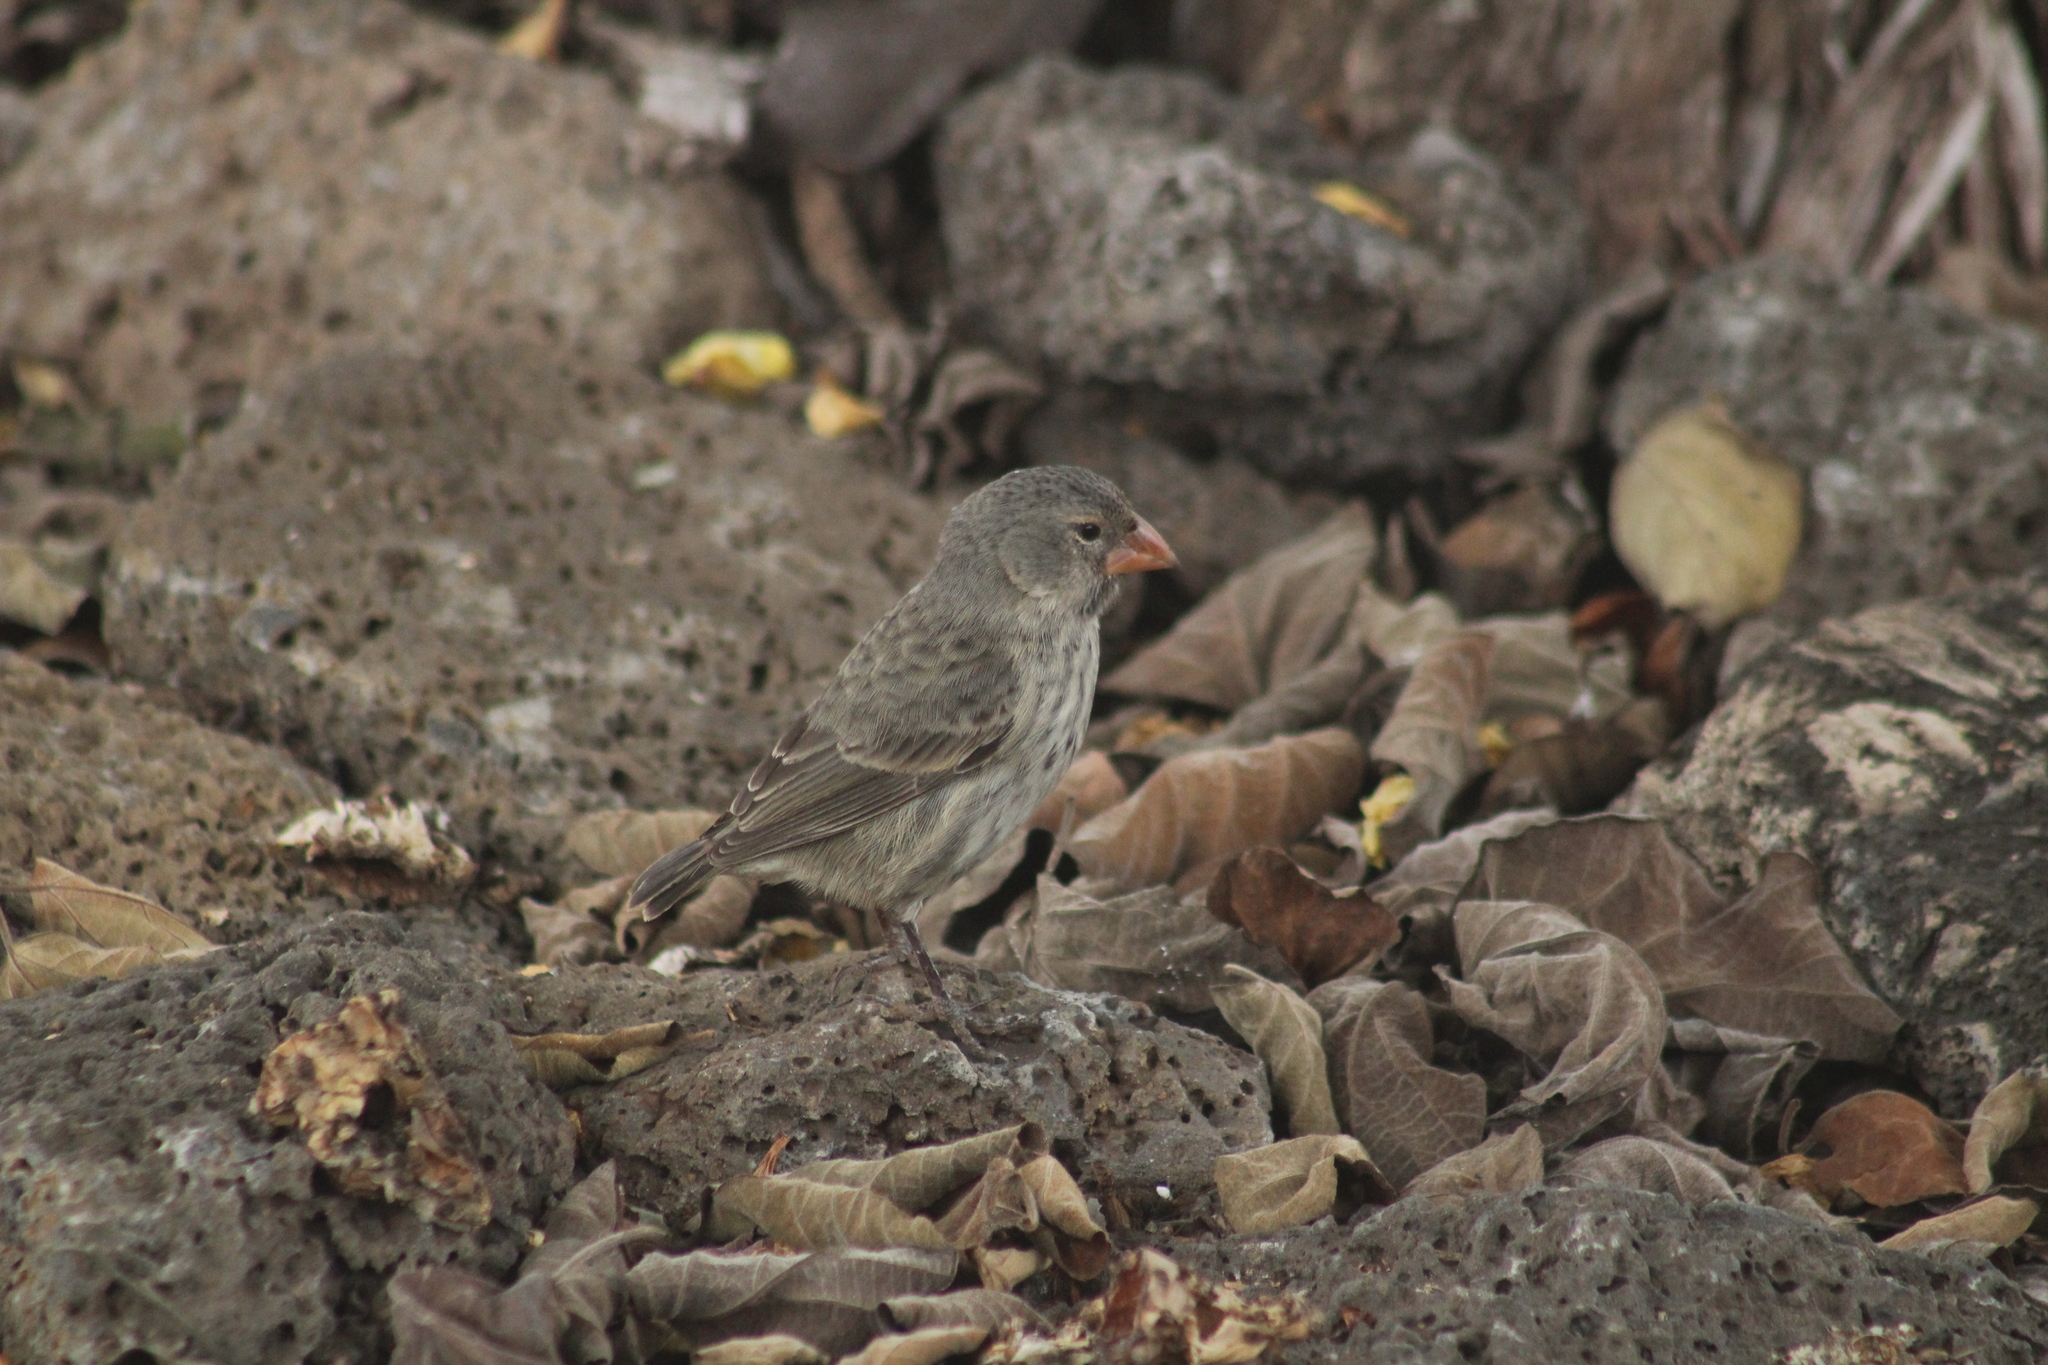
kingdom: Animalia
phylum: Chordata
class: Aves
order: Passeriformes
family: Thraupidae
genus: Geospiza
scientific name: Geospiza fuliginosa
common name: Small ground finch
